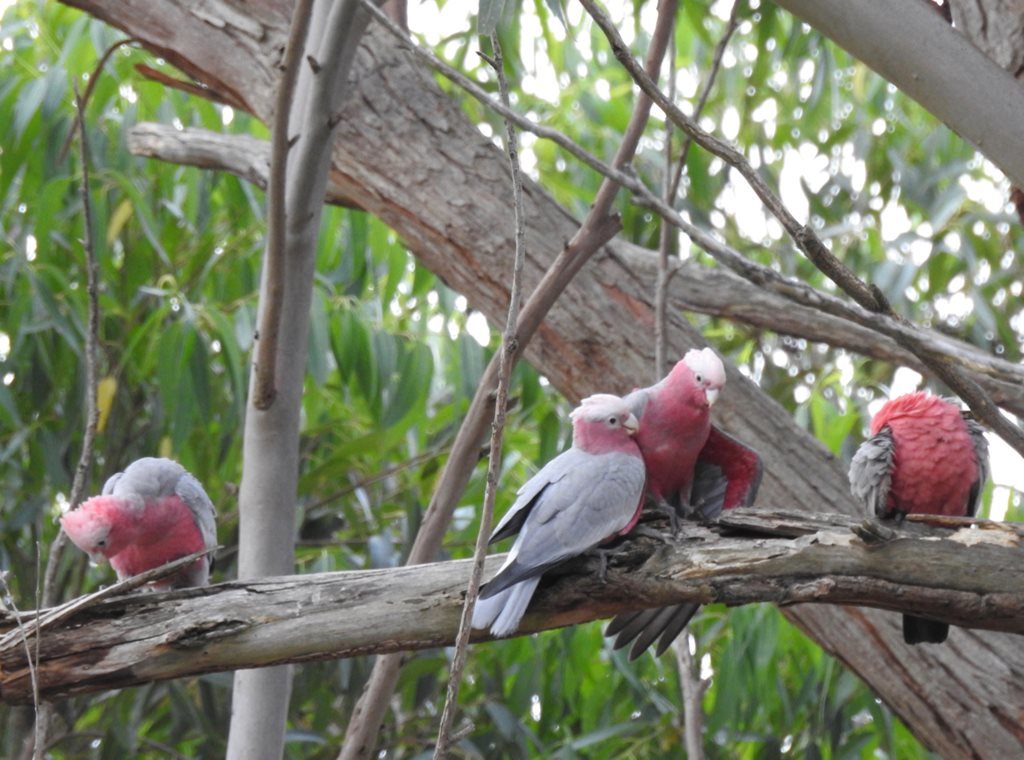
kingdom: Animalia
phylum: Chordata
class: Aves
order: Psittaciformes
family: Psittacidae
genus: Eolophus
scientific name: Eolophus roseicapilla
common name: Galah
